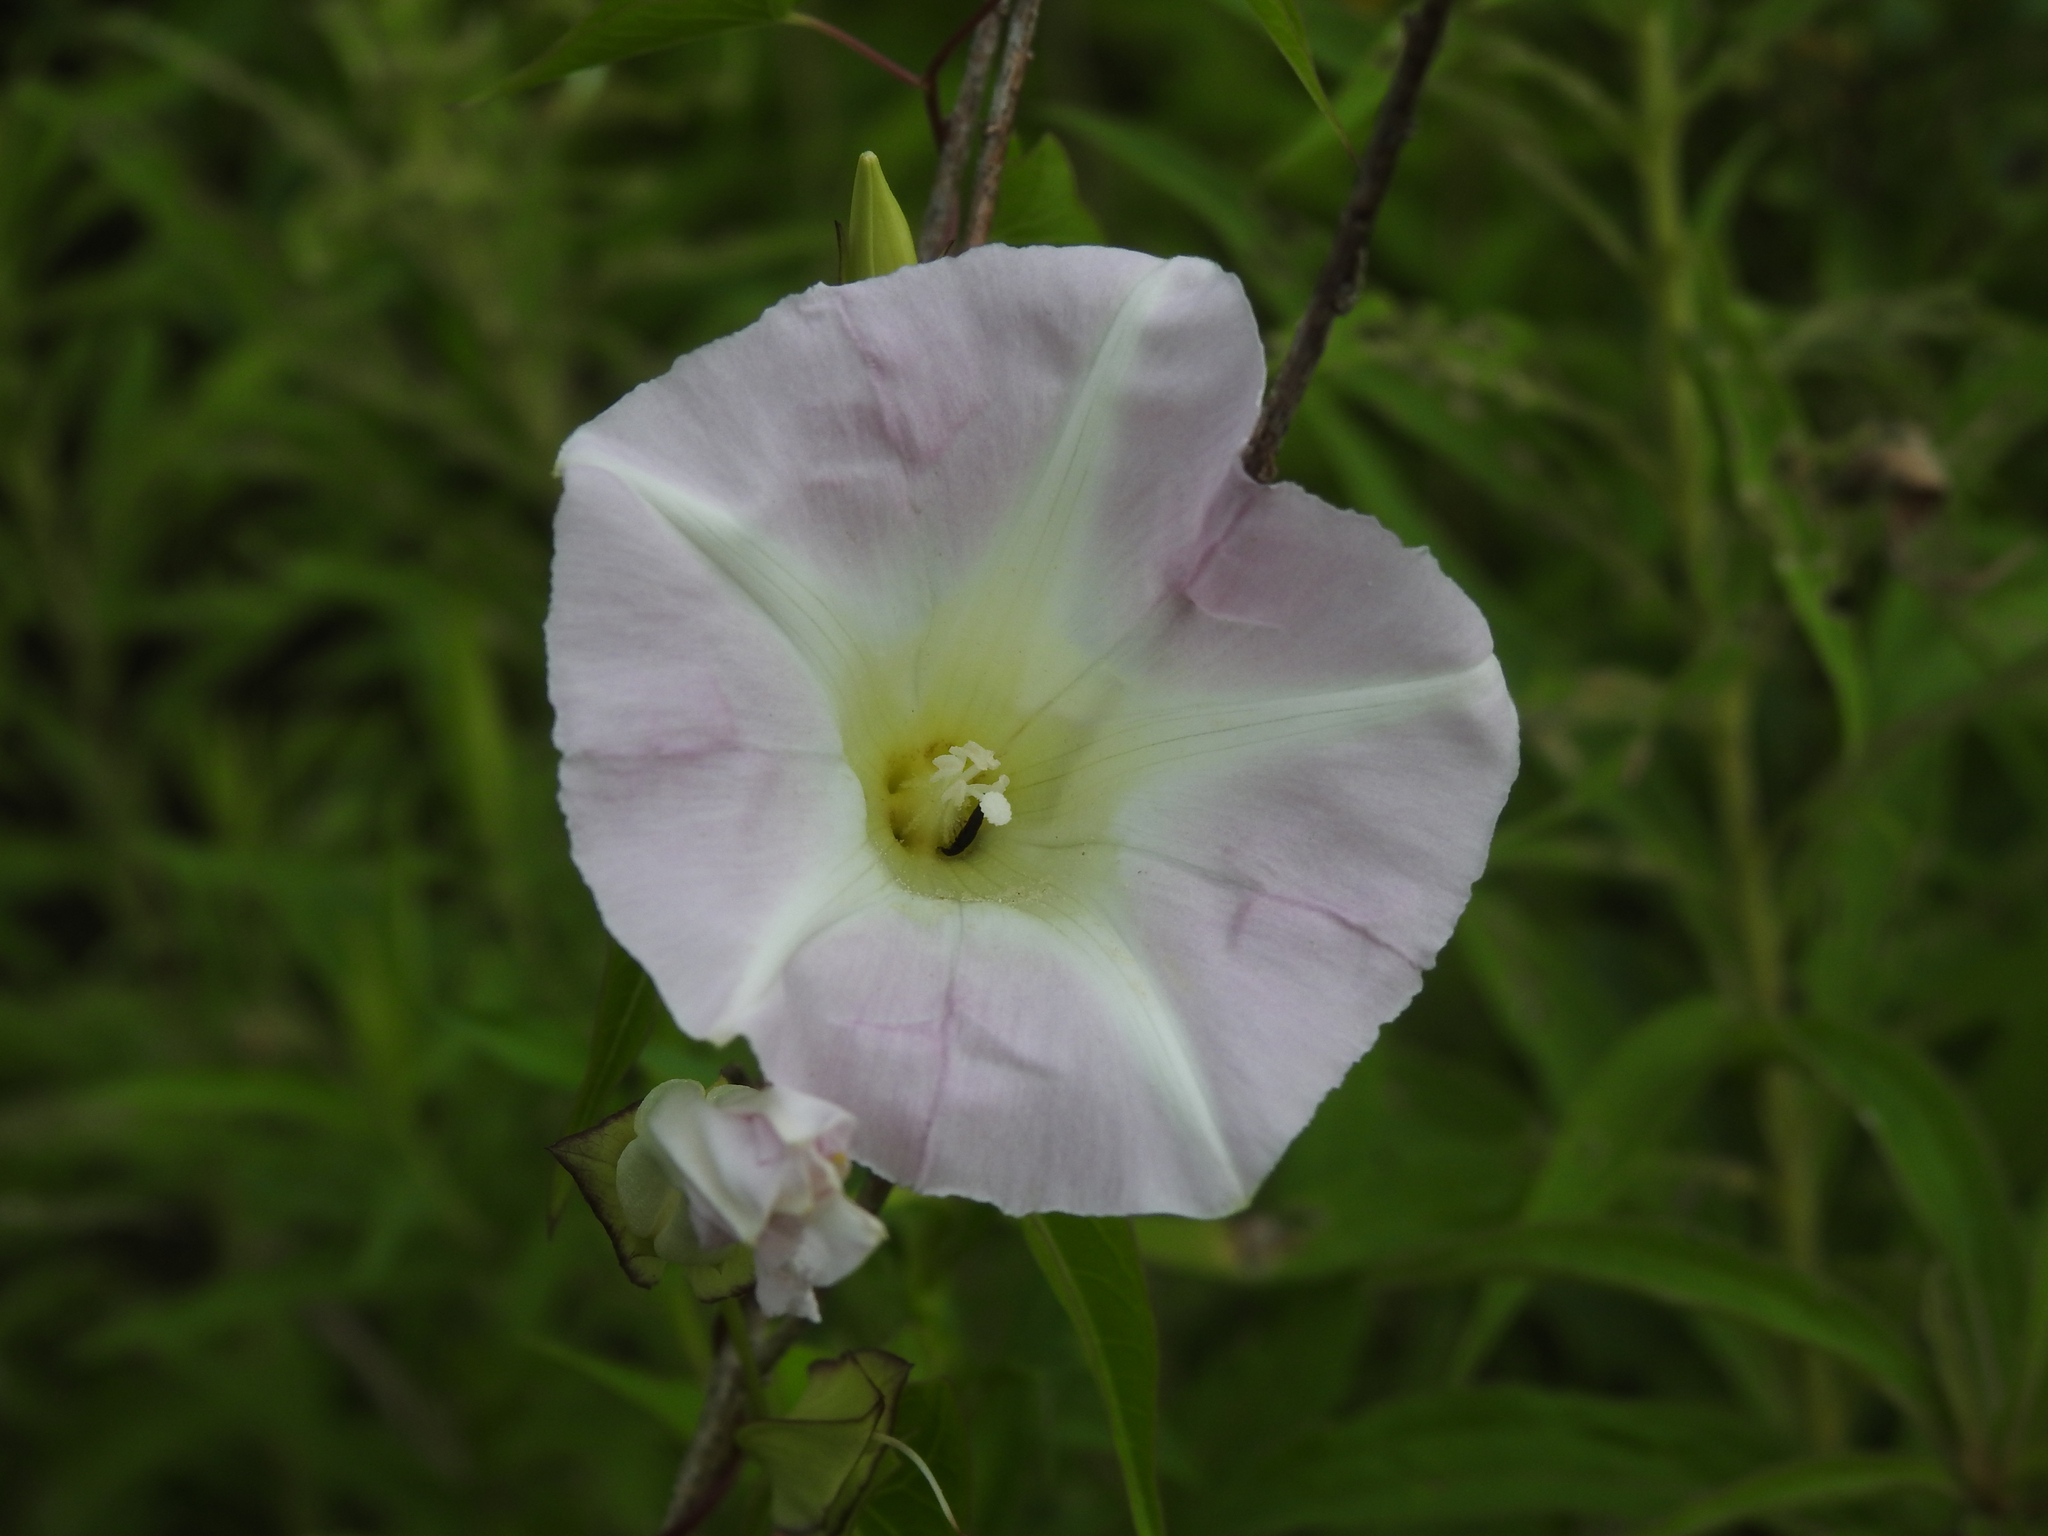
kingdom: Plantae
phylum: Tracheophyta
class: Magnoliopsida
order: Solanales
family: Convolvulaceae
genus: Calystegia
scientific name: Calystegia sepium
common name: Hedge bindweed
